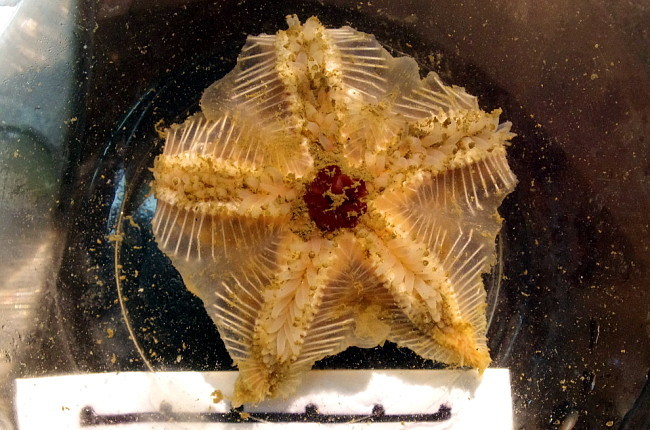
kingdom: Animalia
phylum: Echinodermata
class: Asteroidea
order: Velatida
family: Pterasteridae
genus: Hymenaster
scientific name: Hymenaster pellucidus
